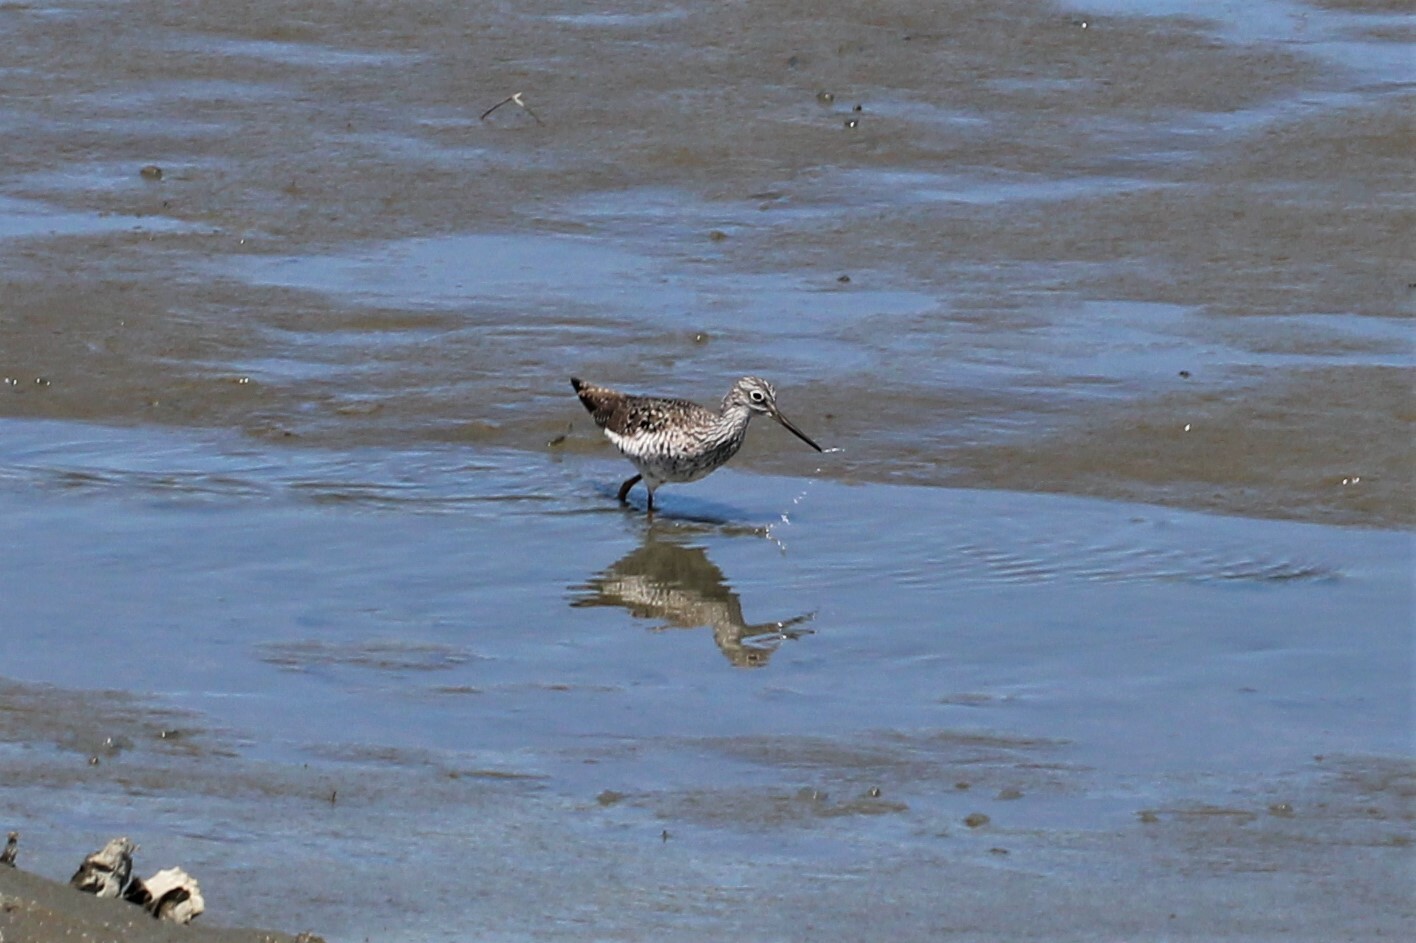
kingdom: Animalia
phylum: Chordata
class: Aves
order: Charadriiformes
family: Scolopacidae
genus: Tringa
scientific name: Tringa melanoleuca
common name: Greater yellowlegs
